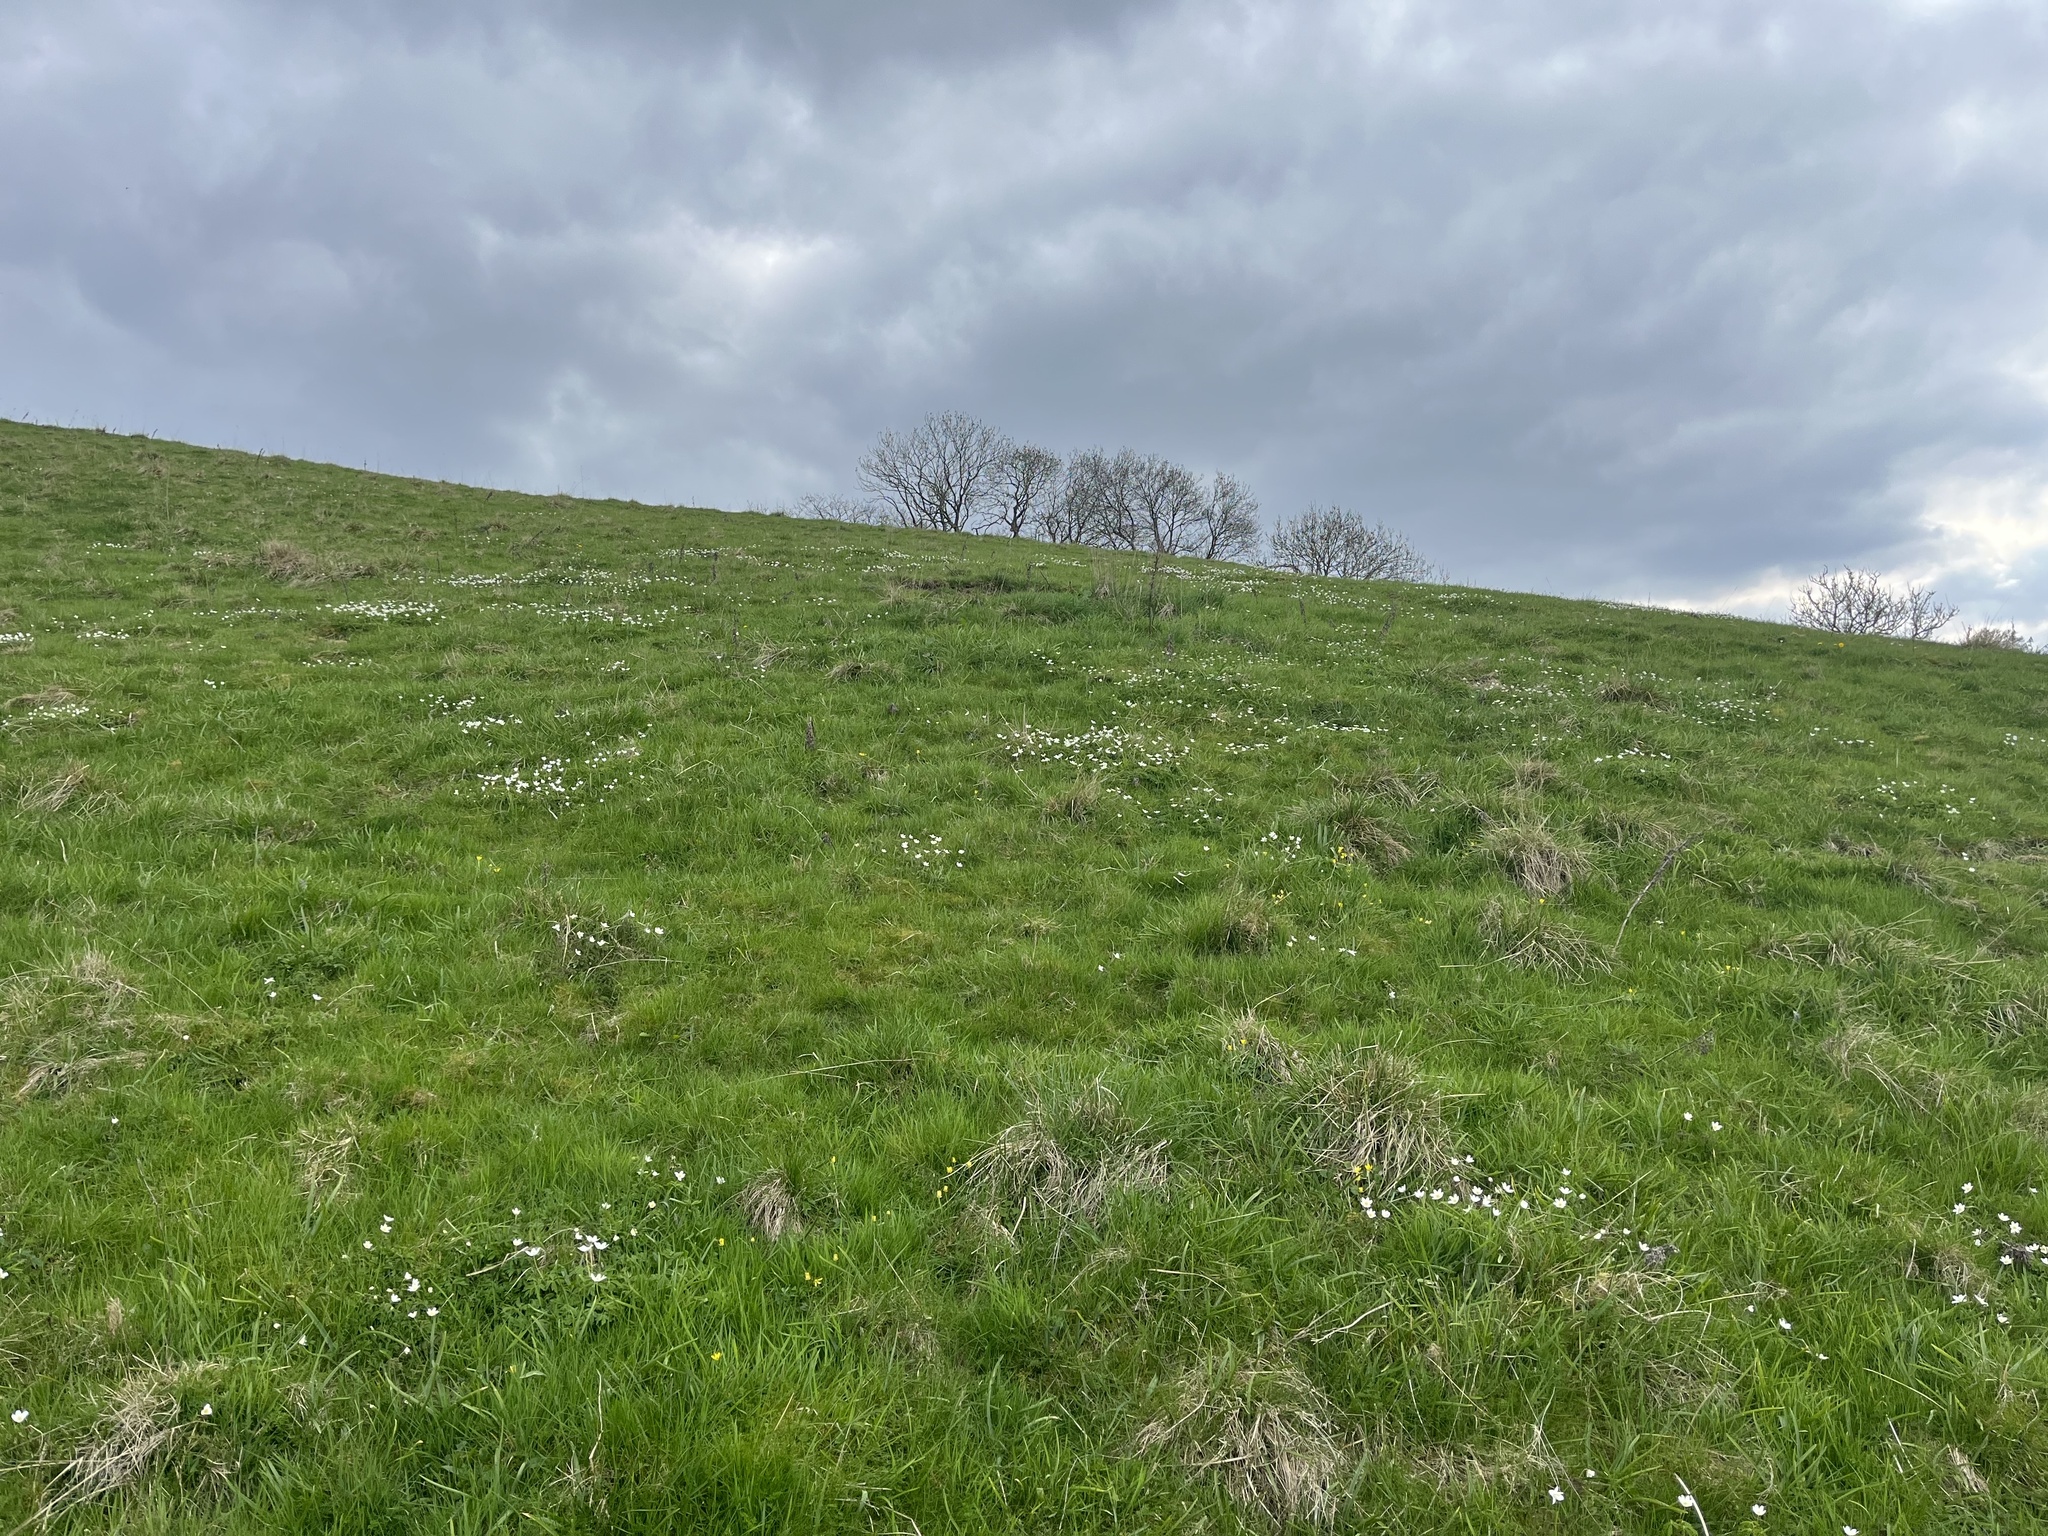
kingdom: Plantae
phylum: Tracheophyta
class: Magnoliopsida
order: Ranunculales
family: Ranunculaceae
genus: Anemone
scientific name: Anemone nemorosa
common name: Wood anemone
